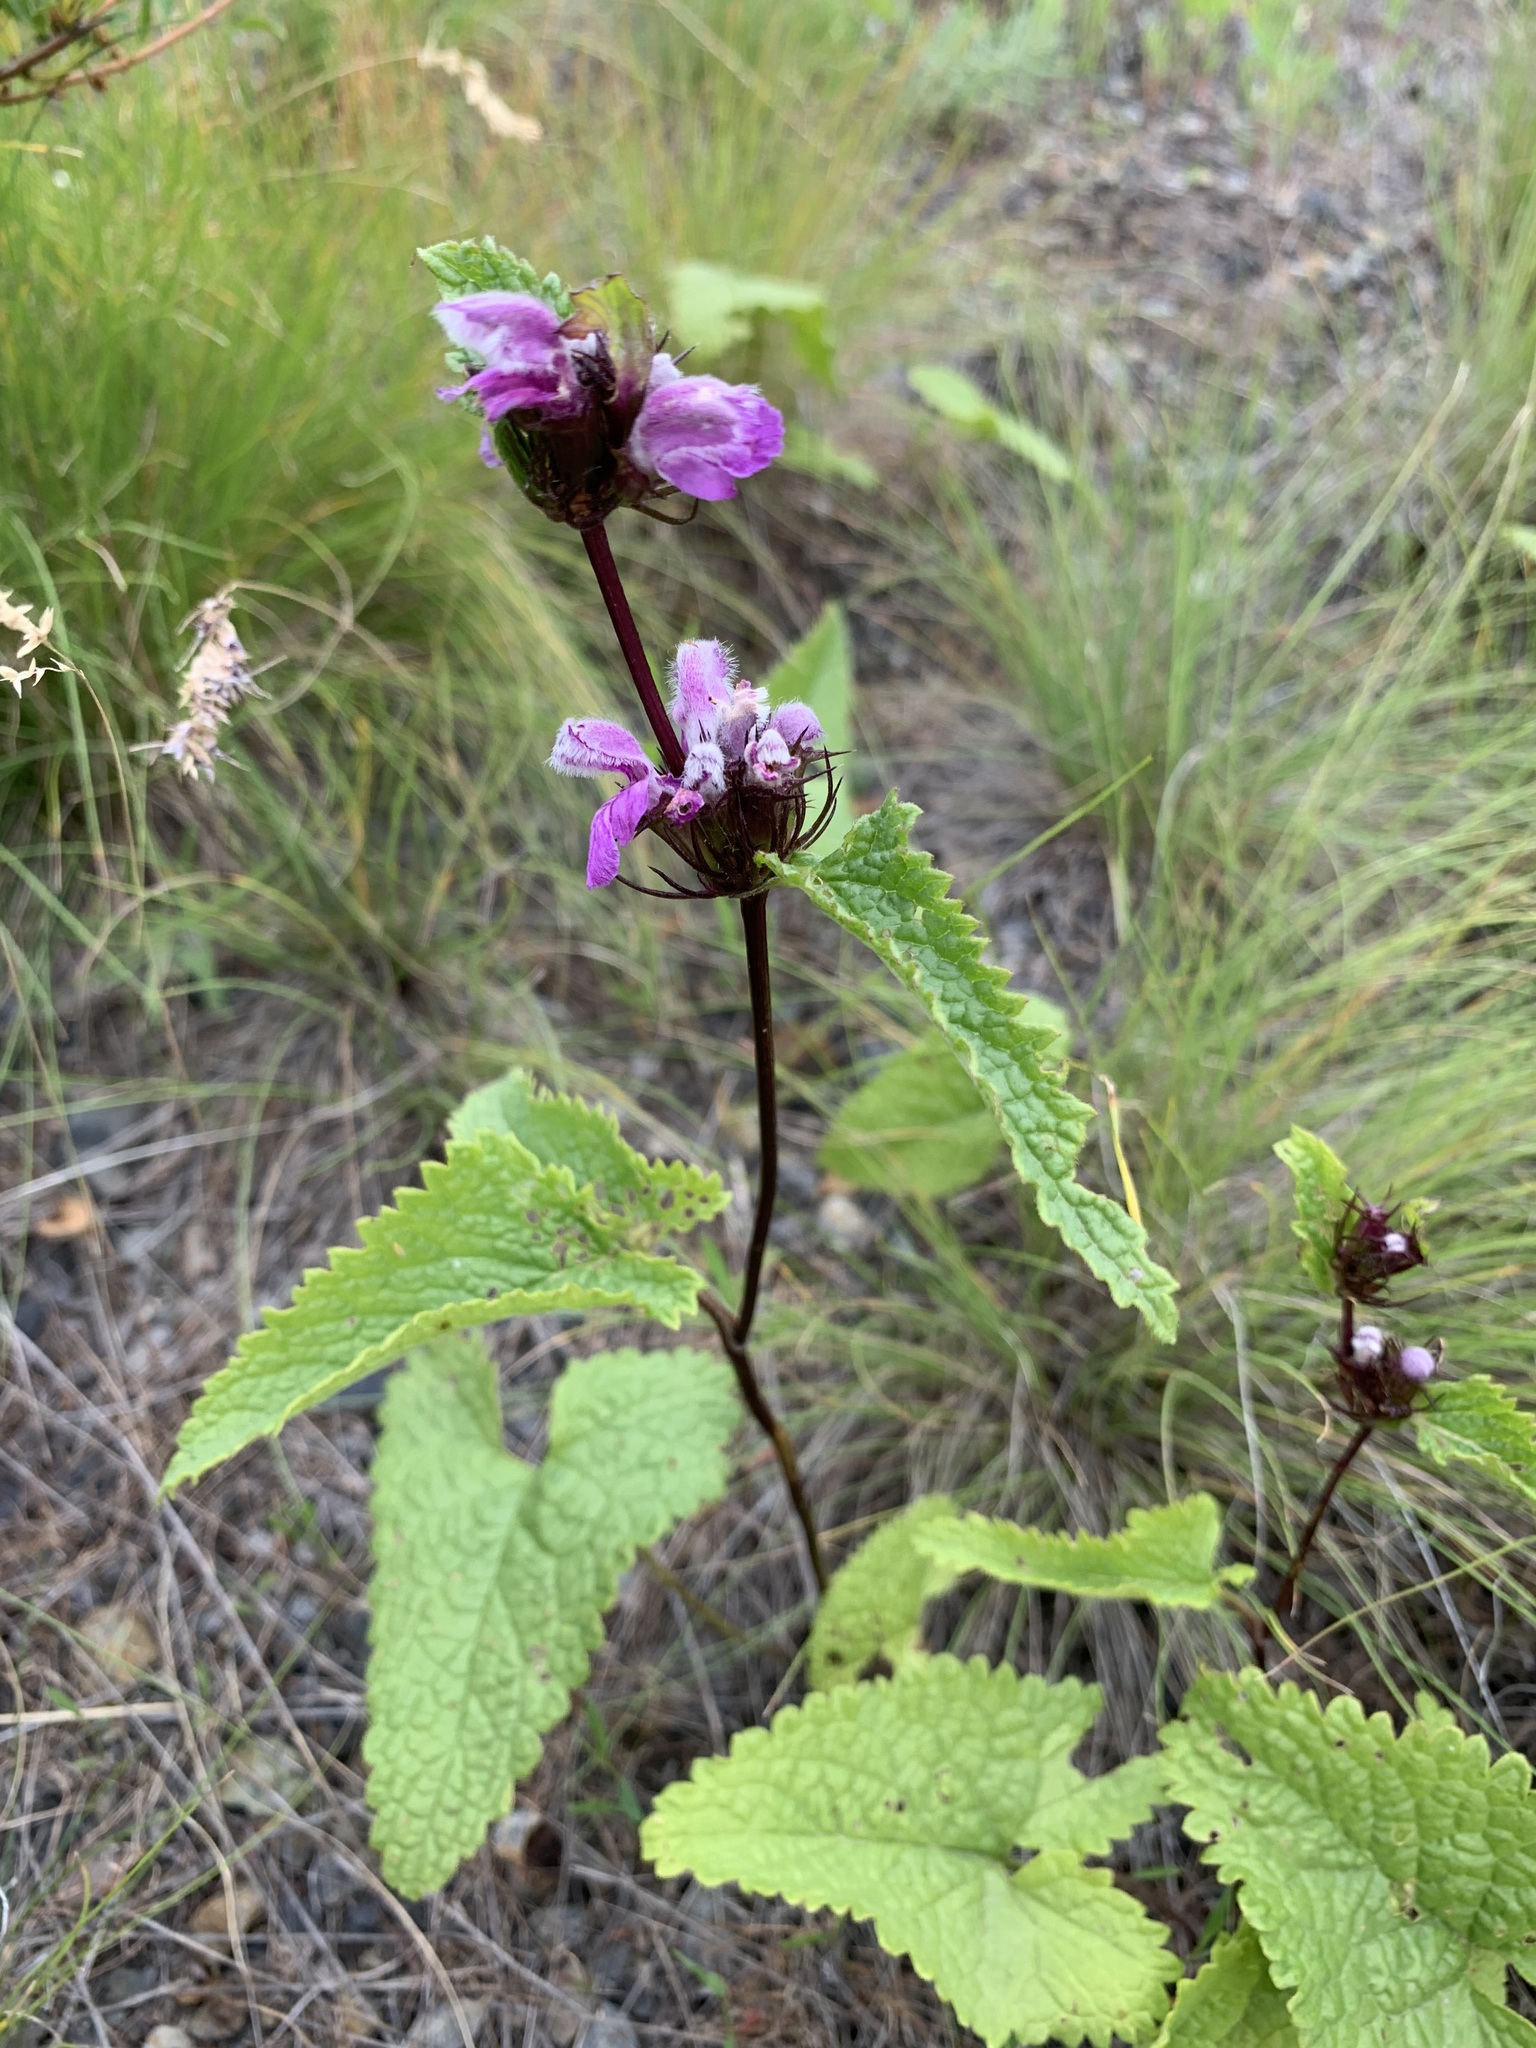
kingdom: Plantae
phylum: Tracheophyta
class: Magnoliopsida
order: Lamiales
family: Lamiaceae
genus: Phlomoides
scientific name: Phlomoides tuberosa
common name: Tuberous jerusalem sage
